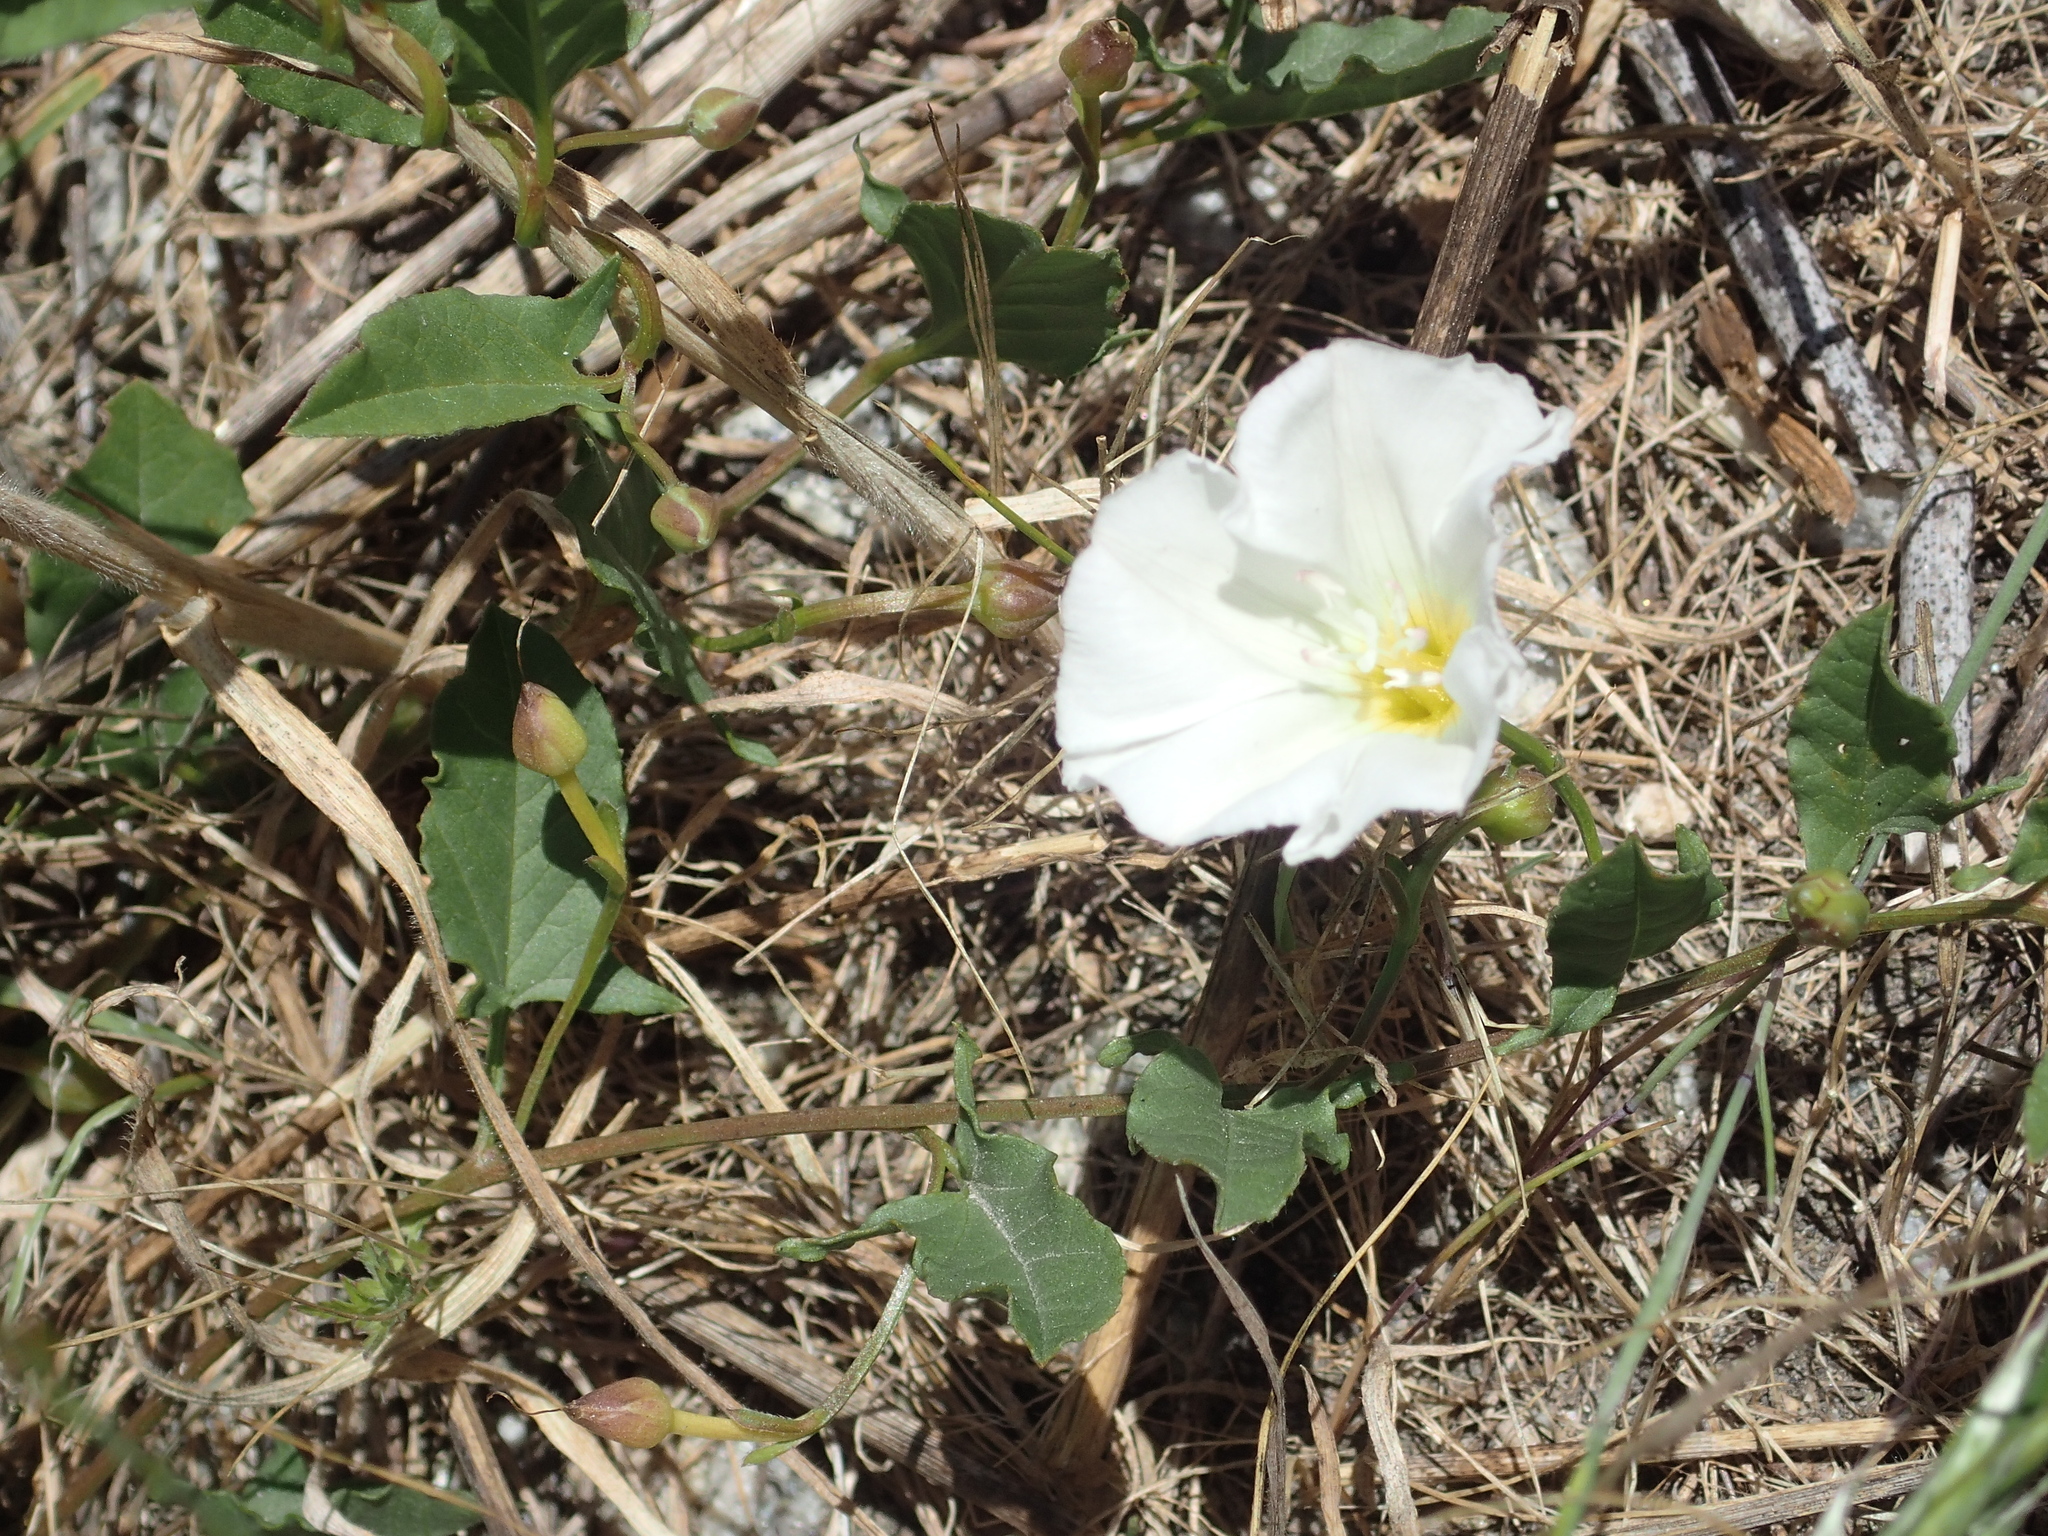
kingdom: Plantae
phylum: Tracheophyta
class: Magnoliopsida
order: Solanales
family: Convolvulaceae
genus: Convolvulus
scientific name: Convolvulus arvensis
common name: Field bindweed
